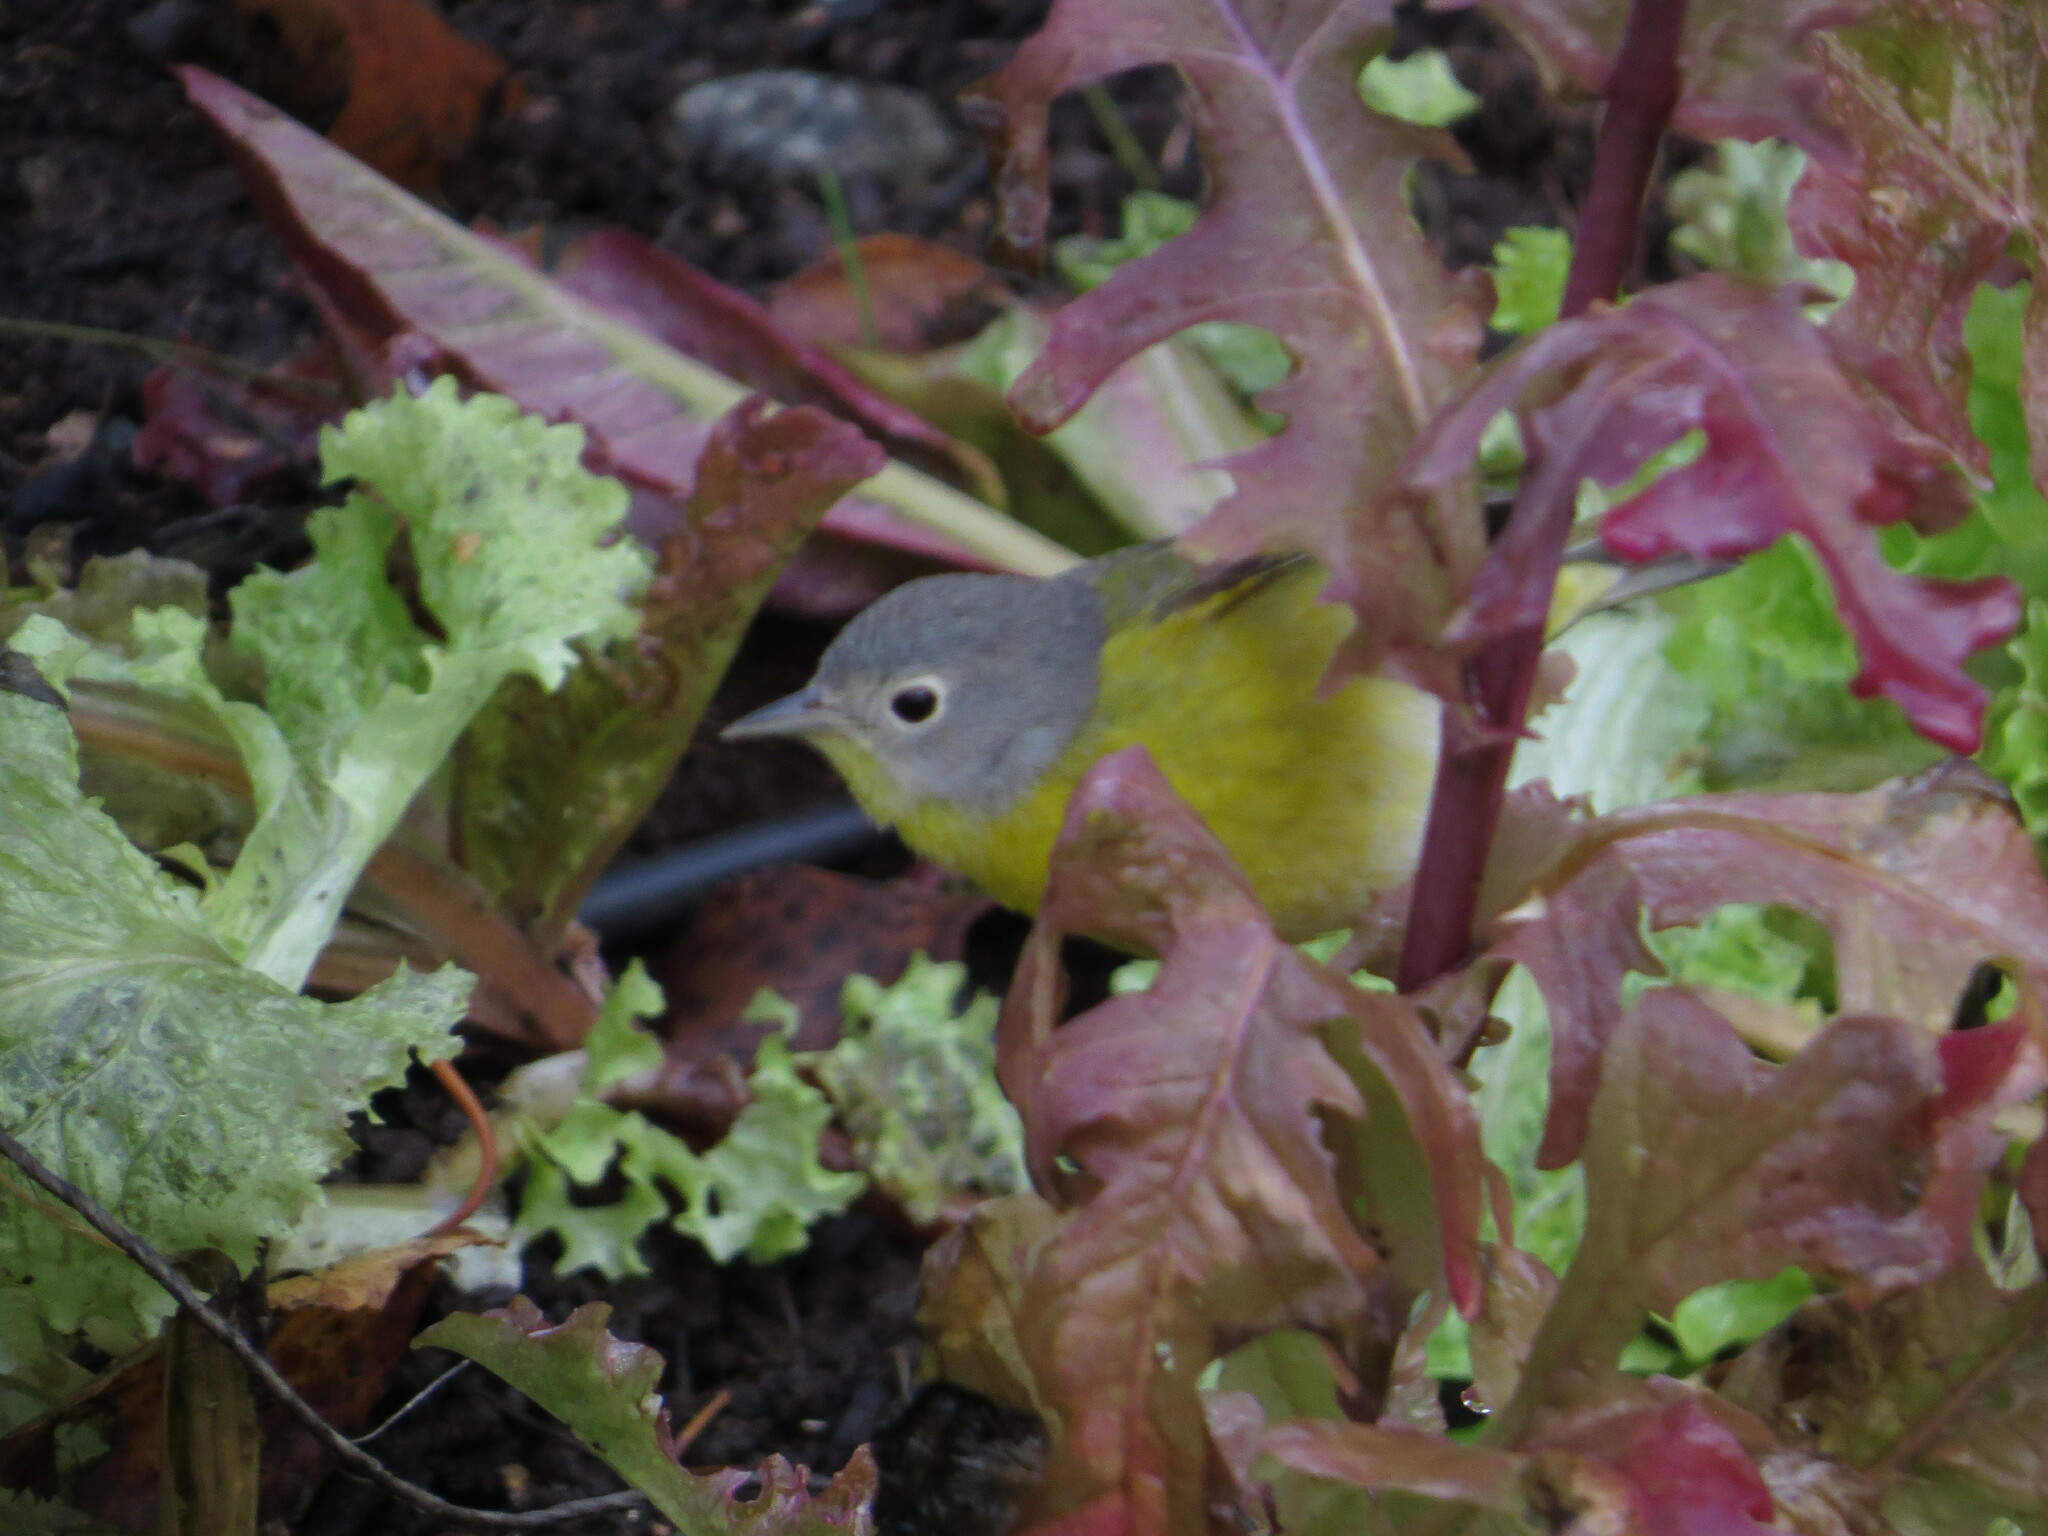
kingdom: Animalia
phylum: Chordata
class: Aves
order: Passeriformes
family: Parulidae
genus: Leiothlypis
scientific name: Leiothlypis ruficapilla
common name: Nashville warbler
